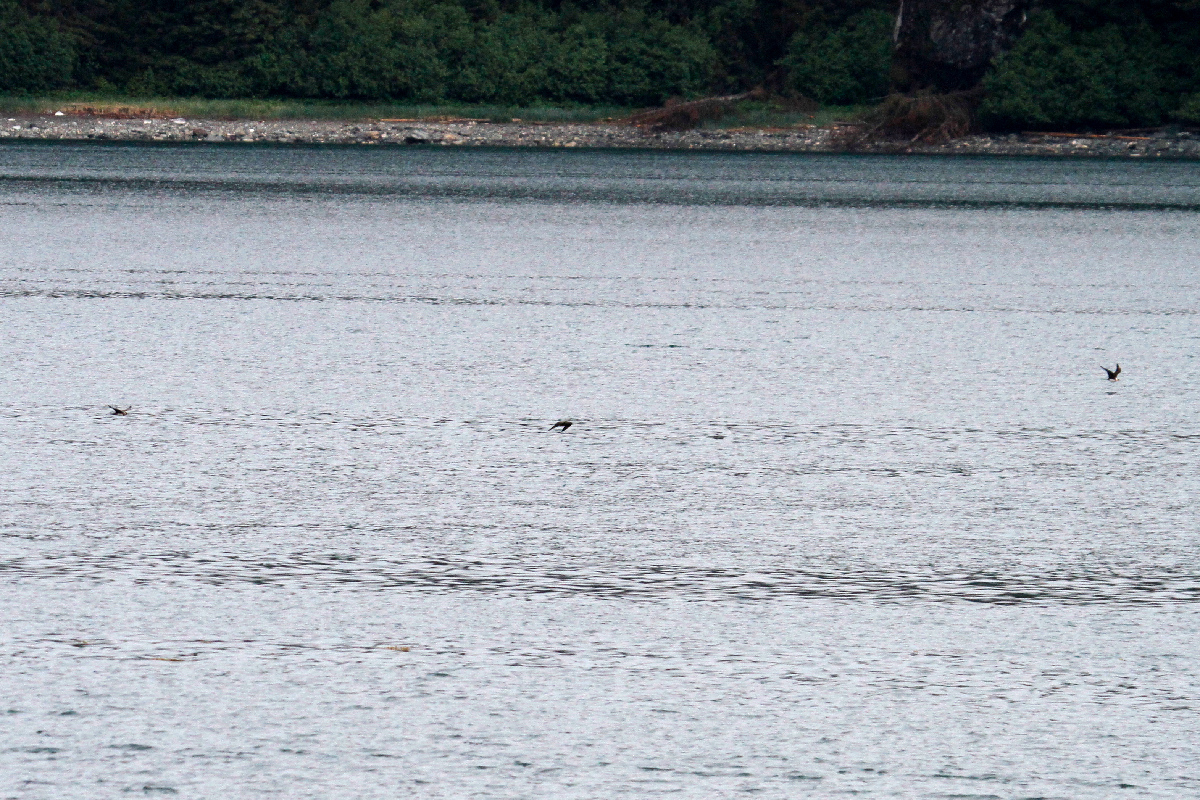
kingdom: Animalia
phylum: Chordata
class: Aves
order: Charadriiformes
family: Stercorariidae
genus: Stercorarius
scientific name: Stercorarius parasiticus
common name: Parasitic jaeger
